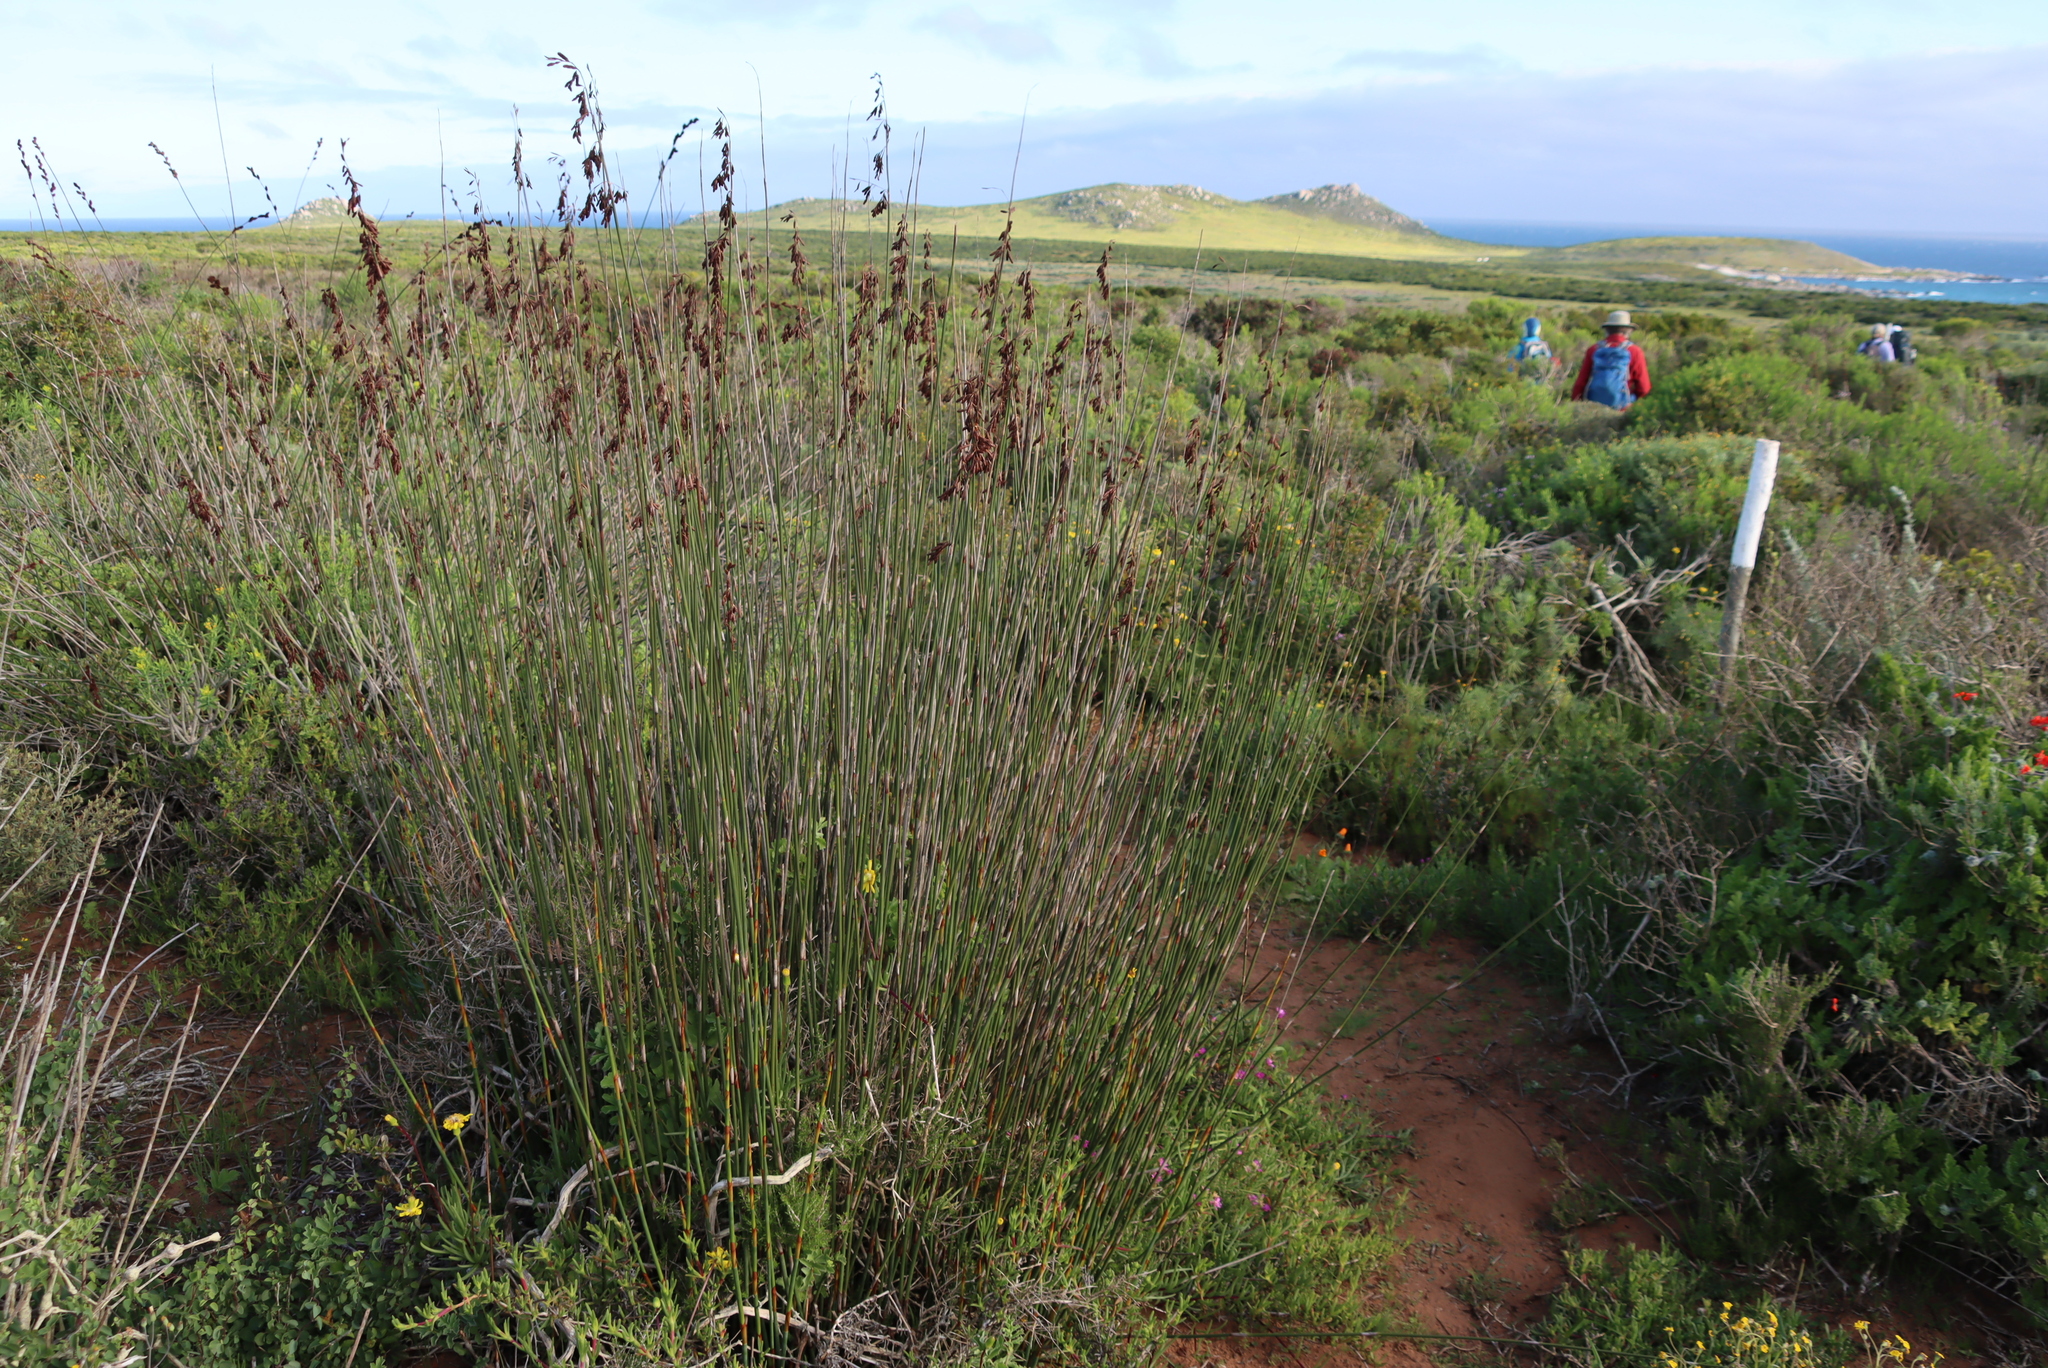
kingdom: Plantae
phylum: Tracheophyta
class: Liliopsida
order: Poales
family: Restionaceae
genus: Thamnochortus
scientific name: Thamnochortus spicigerus
